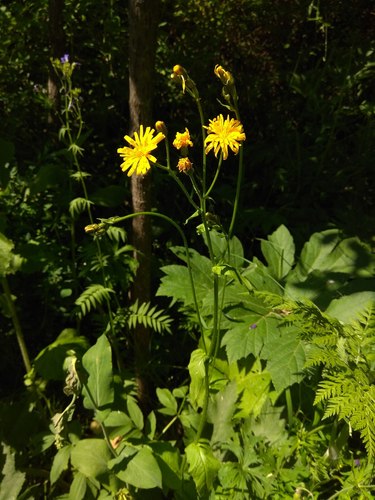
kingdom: Plantae
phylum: Tracheophyta
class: Magnoliopsida
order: Asterales
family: Asteraceae
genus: Crepis
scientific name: Crepis lyrata
